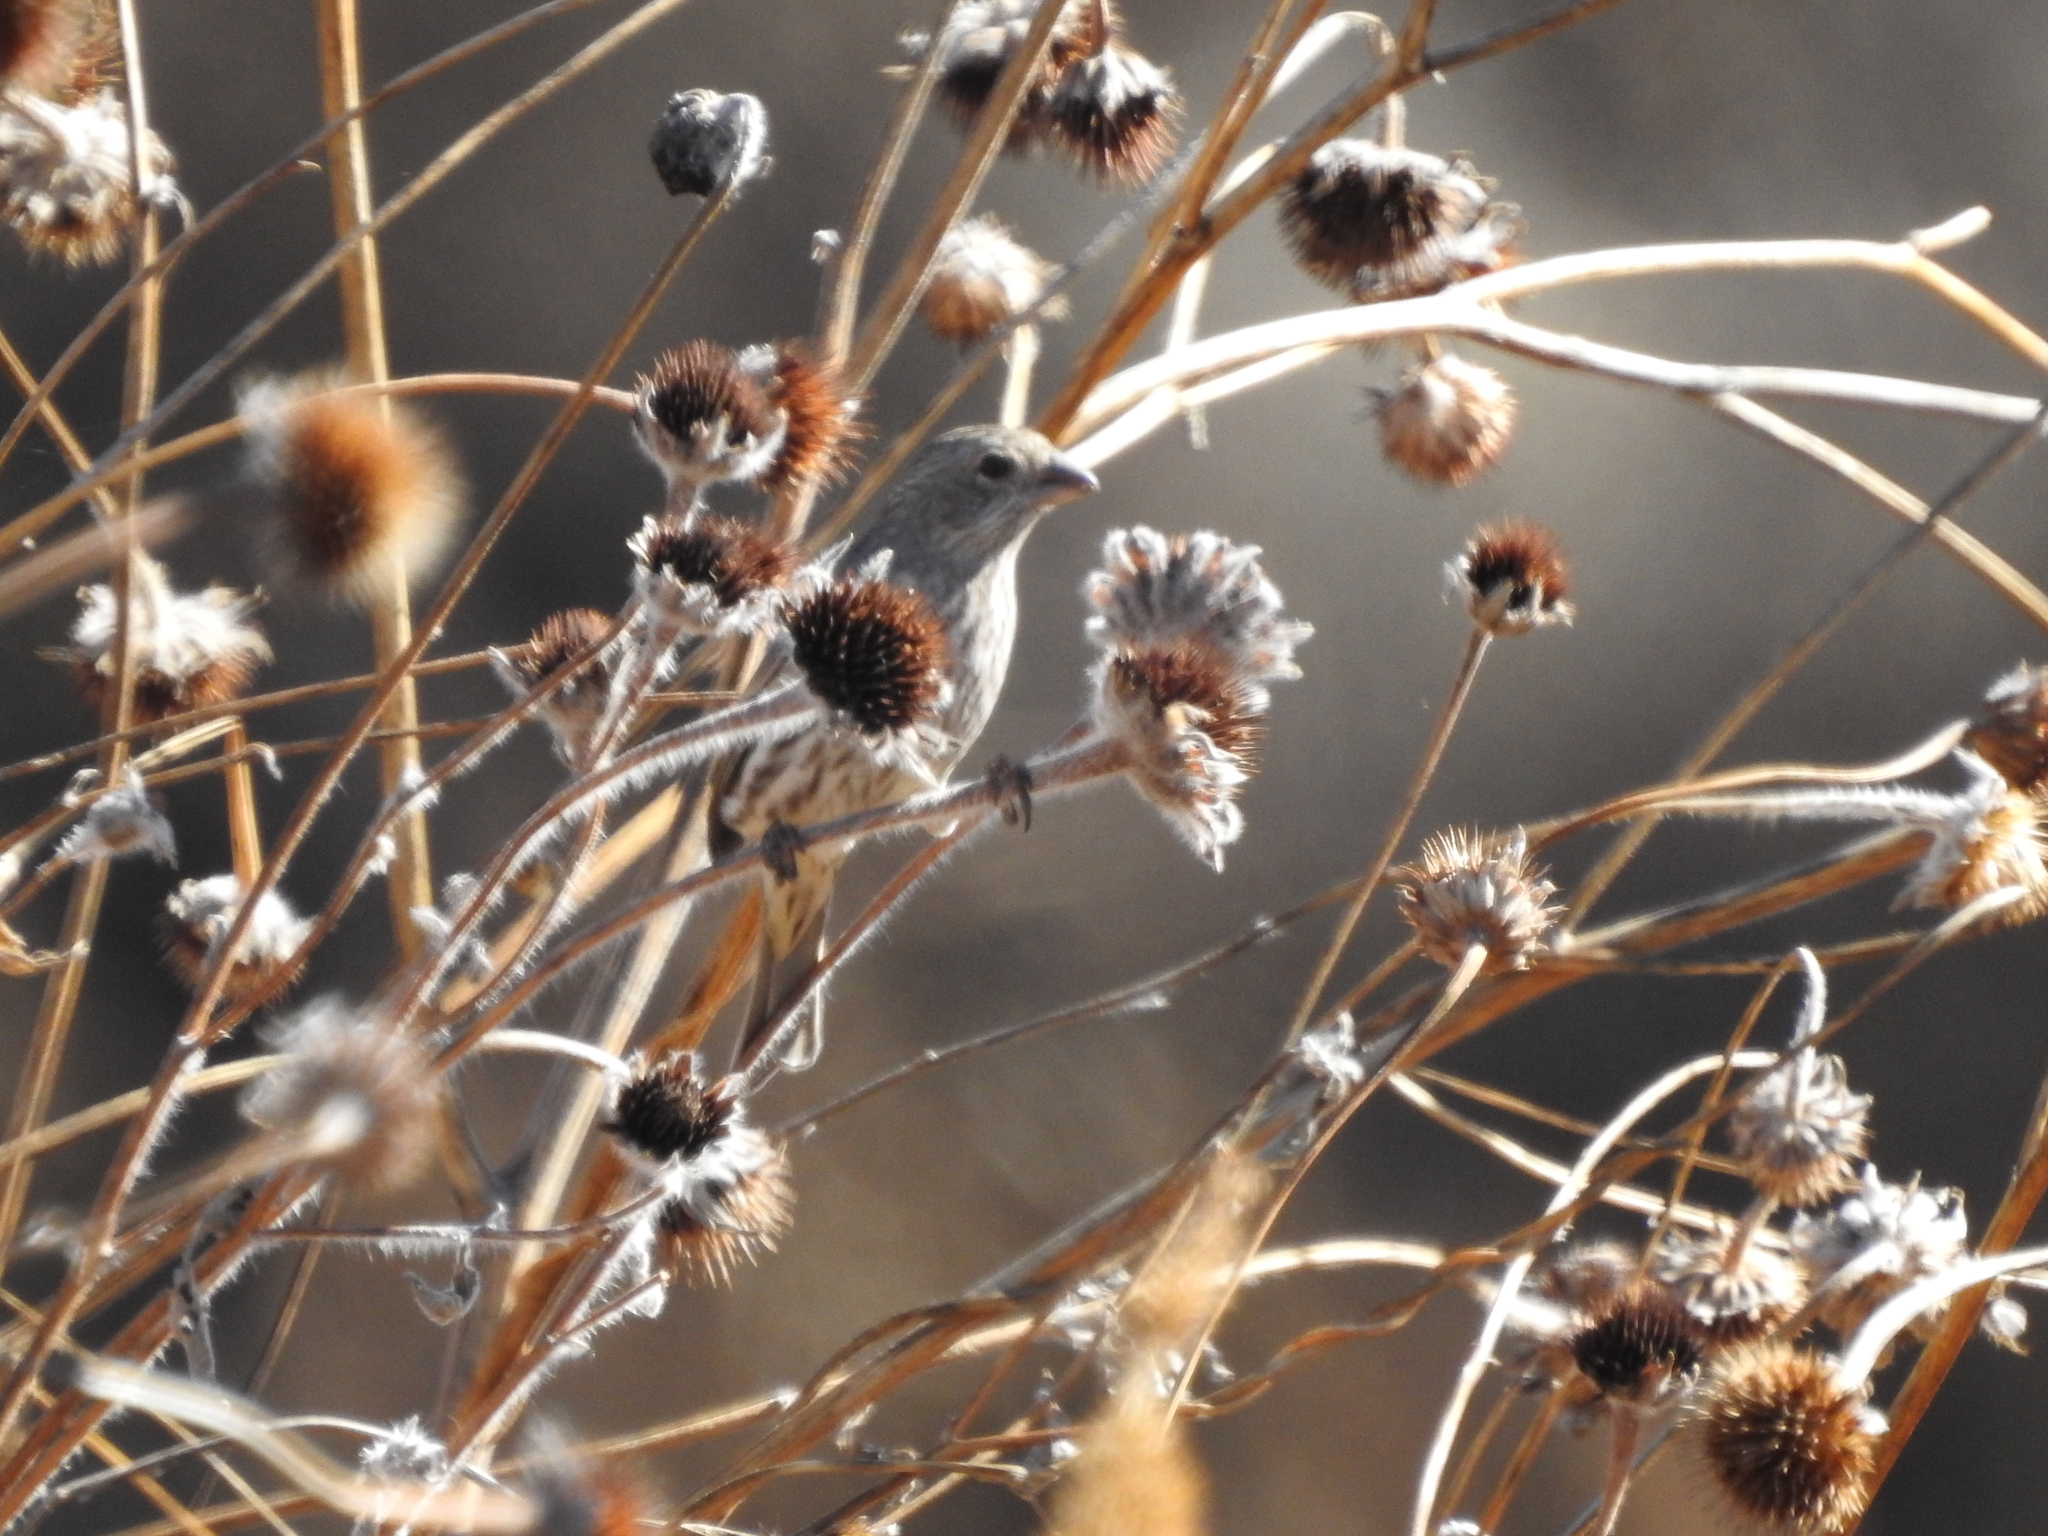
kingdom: Animalia
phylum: Chordata
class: Aves
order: Passeriformes
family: Fringillidae
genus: Haemorhous
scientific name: Haemorhous mexicanus
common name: House finch
